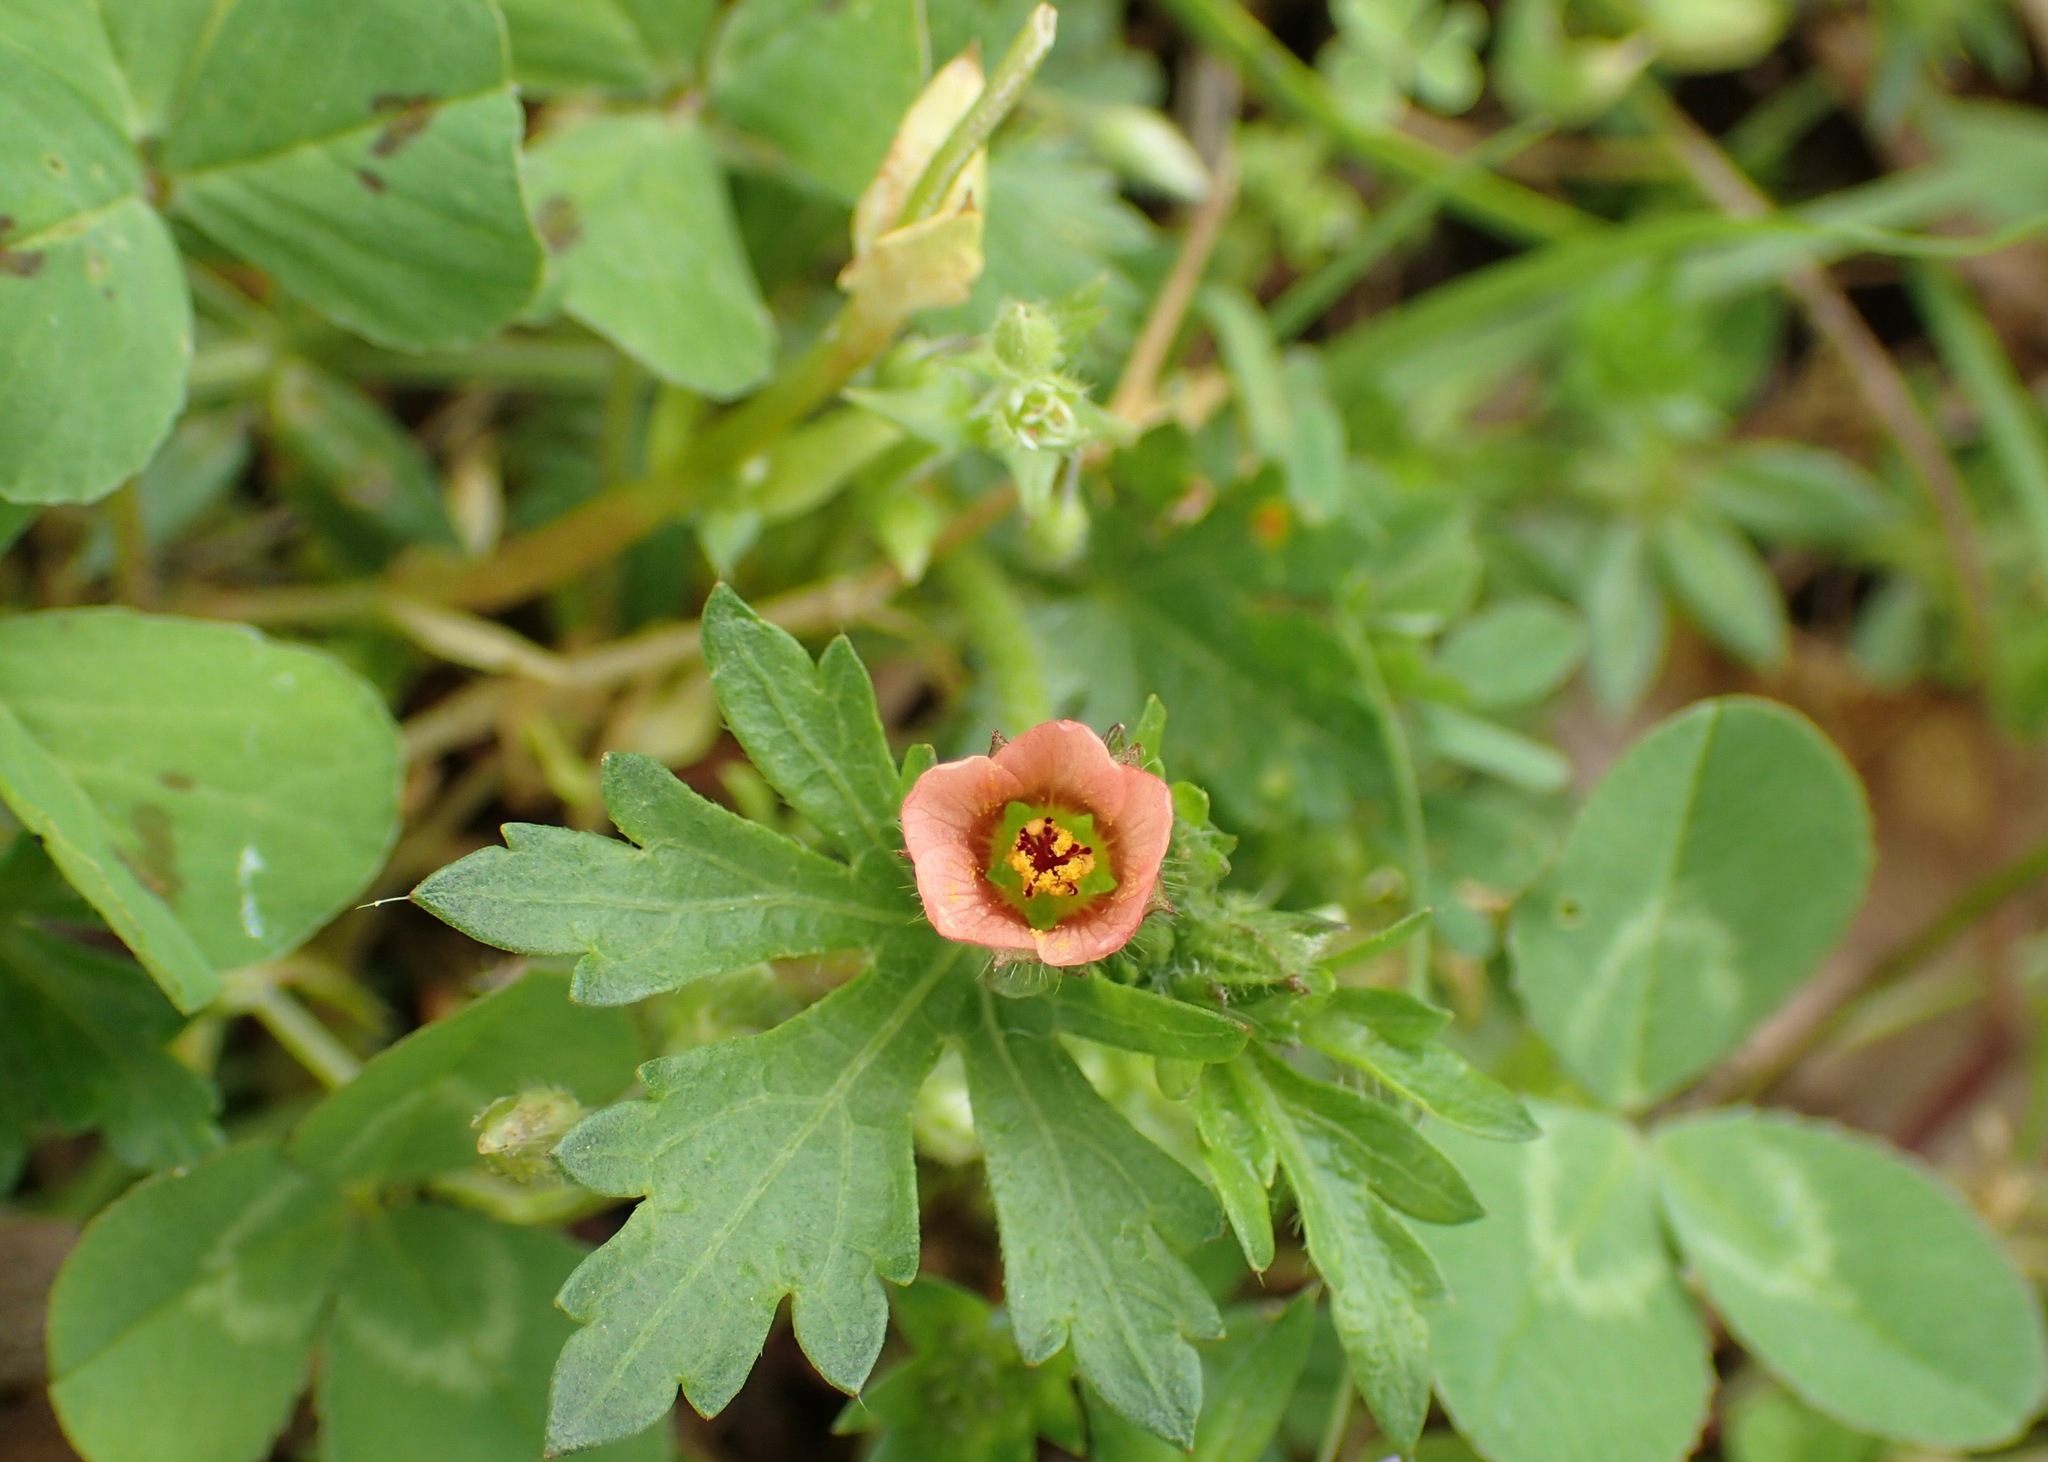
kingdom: Plantae
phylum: Tracheophyta
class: Magnoliopsida
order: Malvales
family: Malvaceae
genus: Modiola
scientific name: Modiola caroliniana
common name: Carolina bristlemallow
